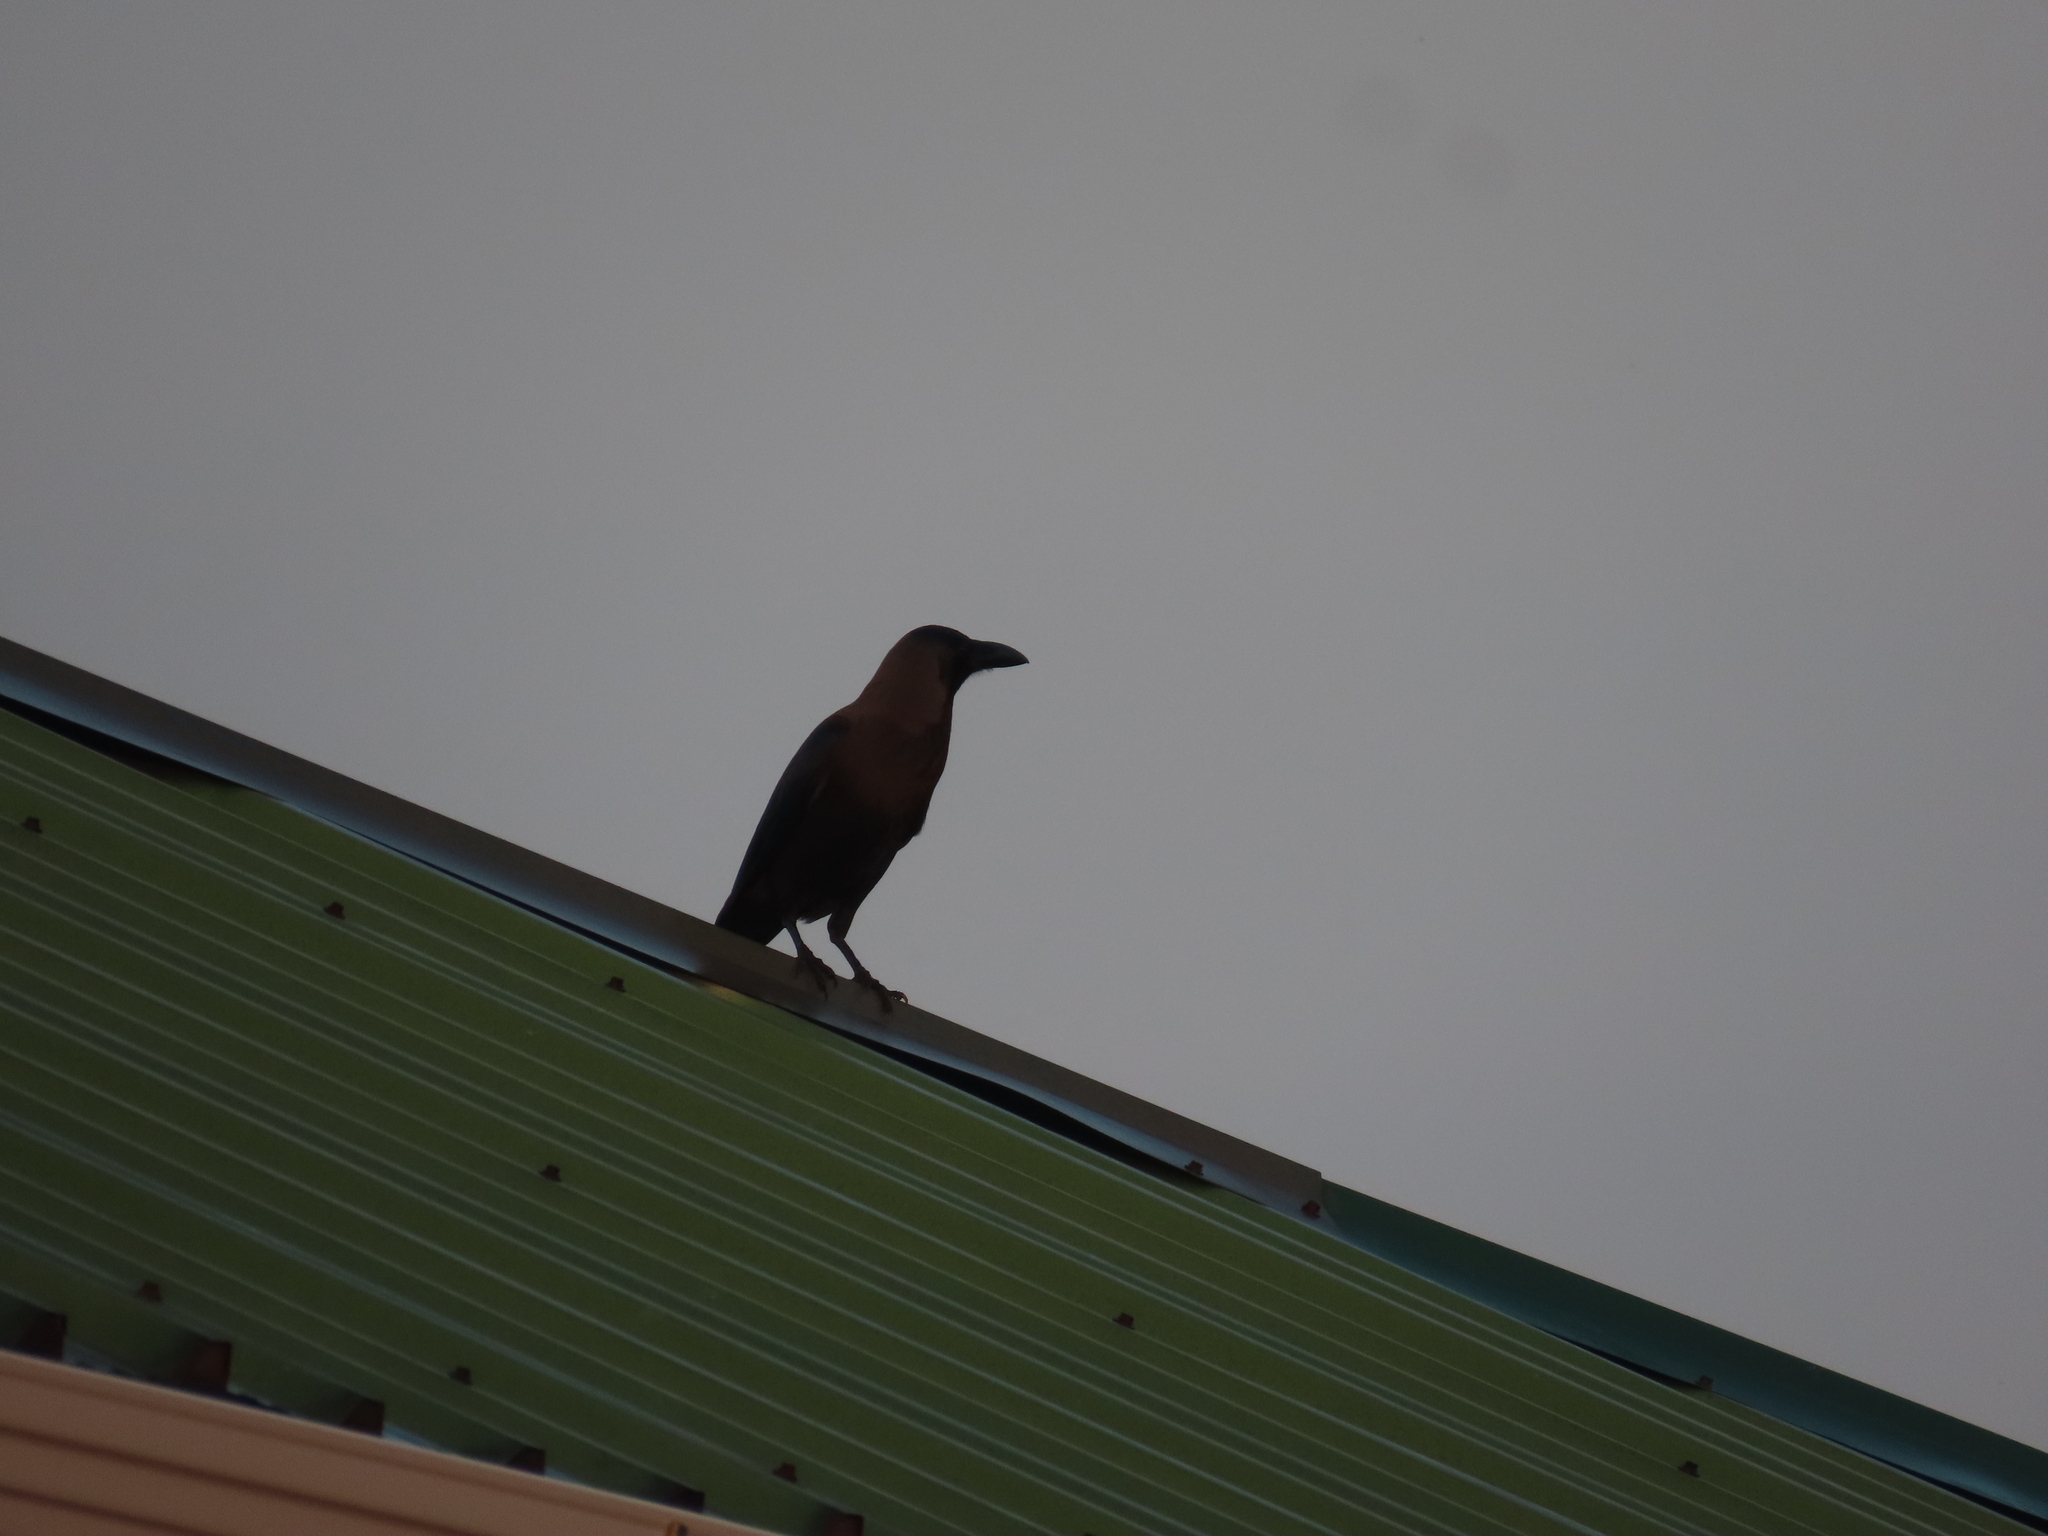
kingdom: Animalia
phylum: Chordata
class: Aves
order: Passeriformes
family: Corvidae
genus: Corvus
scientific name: Corvus splendens
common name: House crow
